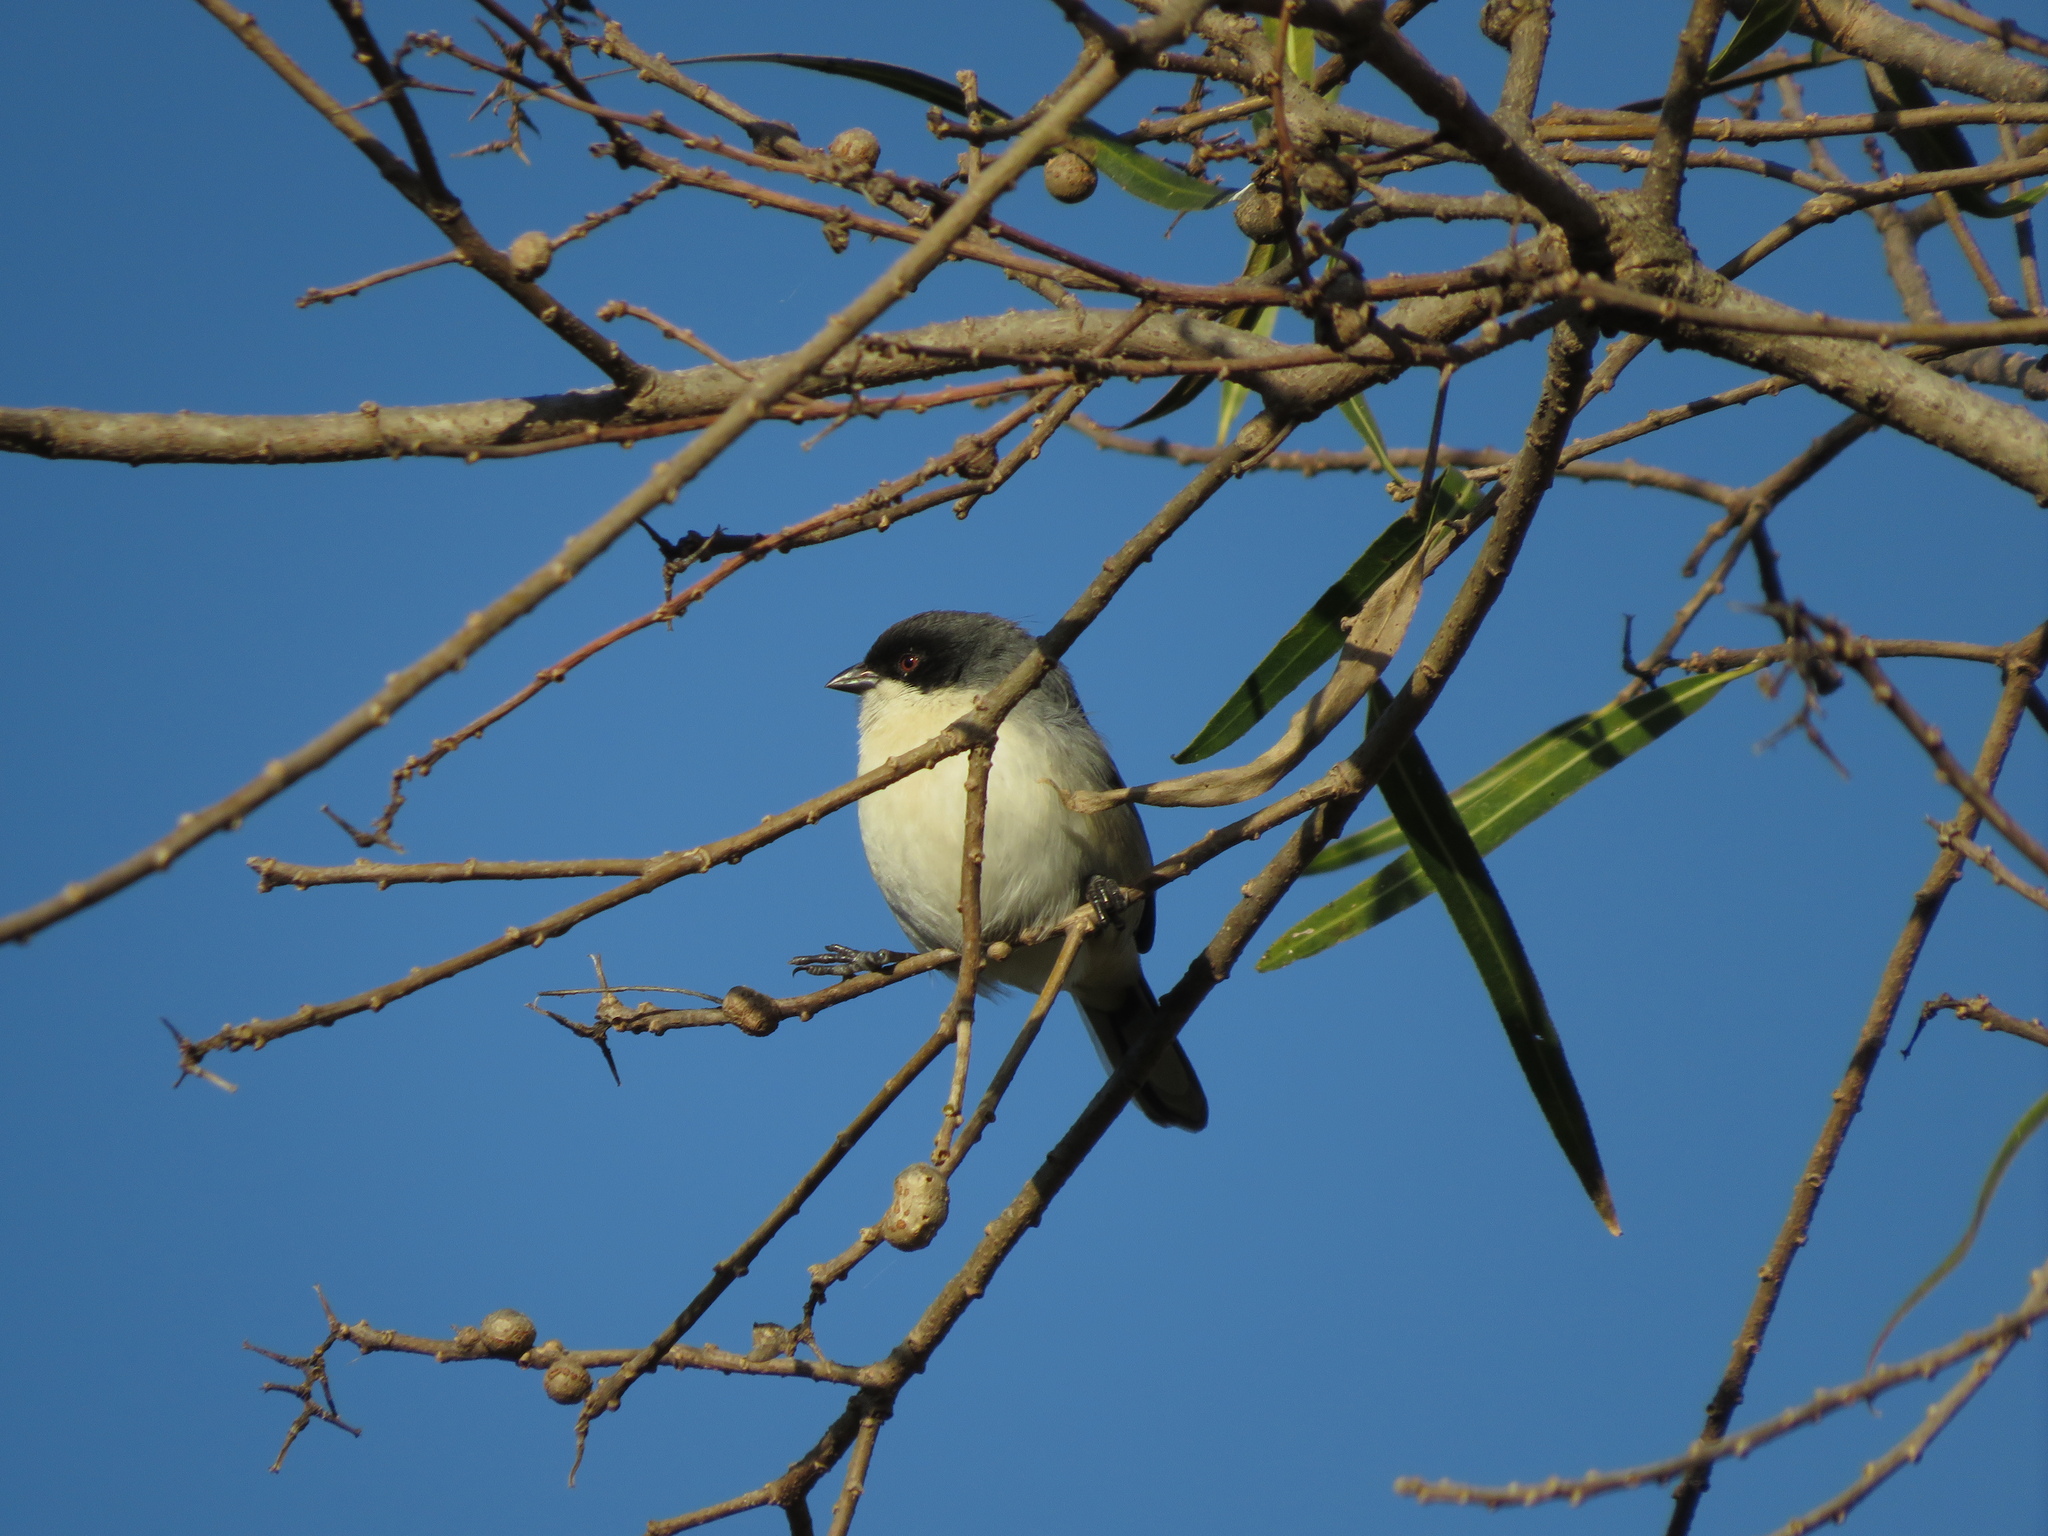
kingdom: Animalia
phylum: Chordata
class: Aves
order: Passeriformes
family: Thraupidae
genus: Microspingus
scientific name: Microspingus melanoleucus
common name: Black-capped warbling-finch
